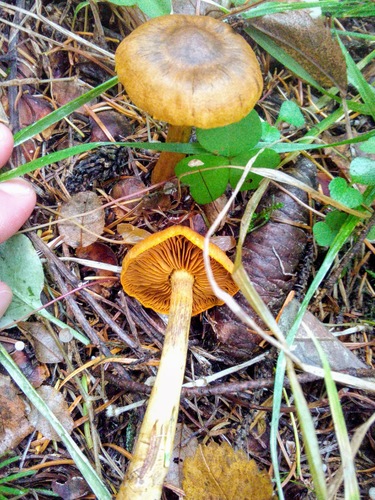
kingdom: Fungi
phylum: Basidiomycota
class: Agaricomycetes
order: Agaricales
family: Cortinariaceae
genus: Cortinarius
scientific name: Cortinarius cinnamomeus
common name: Cinnamon webcap
